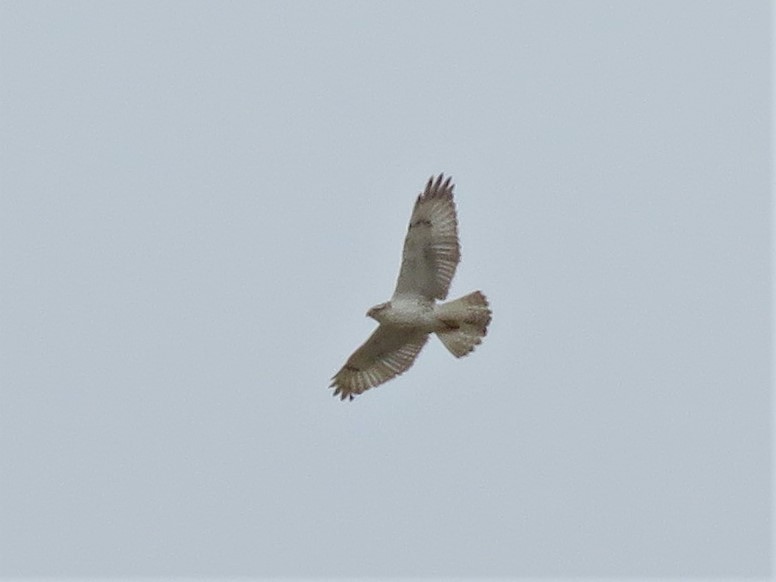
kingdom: Animalia
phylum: Chordata
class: Aves
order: Accipitriformes
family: Accipitridae
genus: Buteo
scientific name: Buteo regalis
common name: Ferruginous hawk
